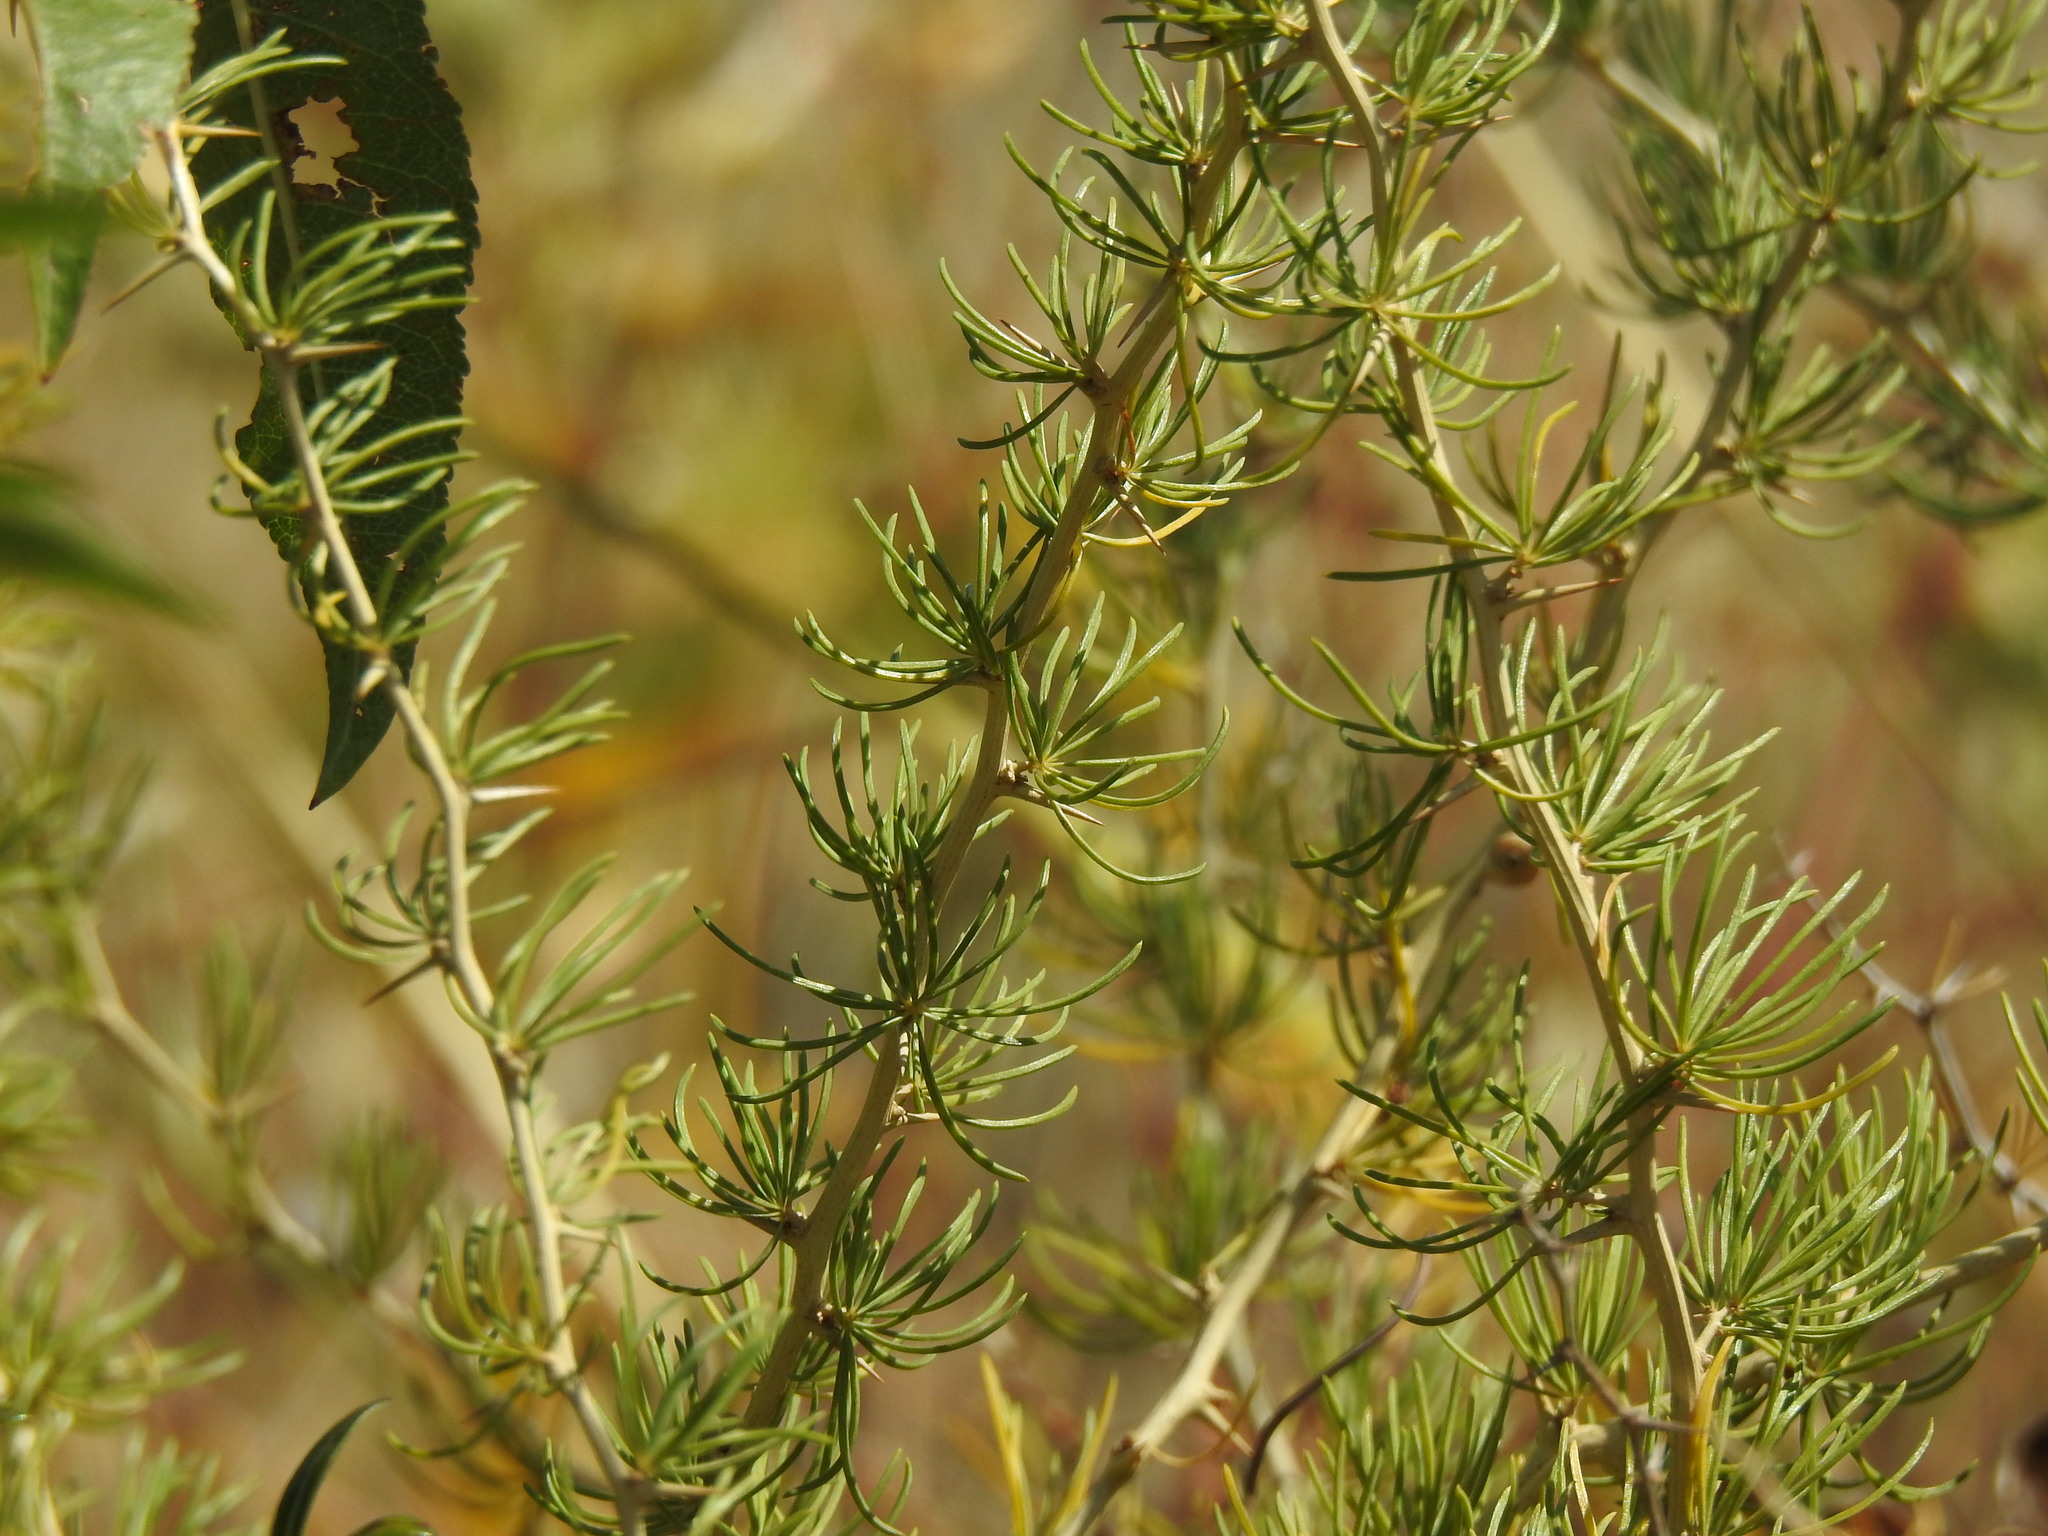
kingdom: Plantae
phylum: Tracheophyta
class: Liliopsida
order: Asparagales
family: Asparagaceae
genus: Asparagus
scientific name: Asparagus albus
